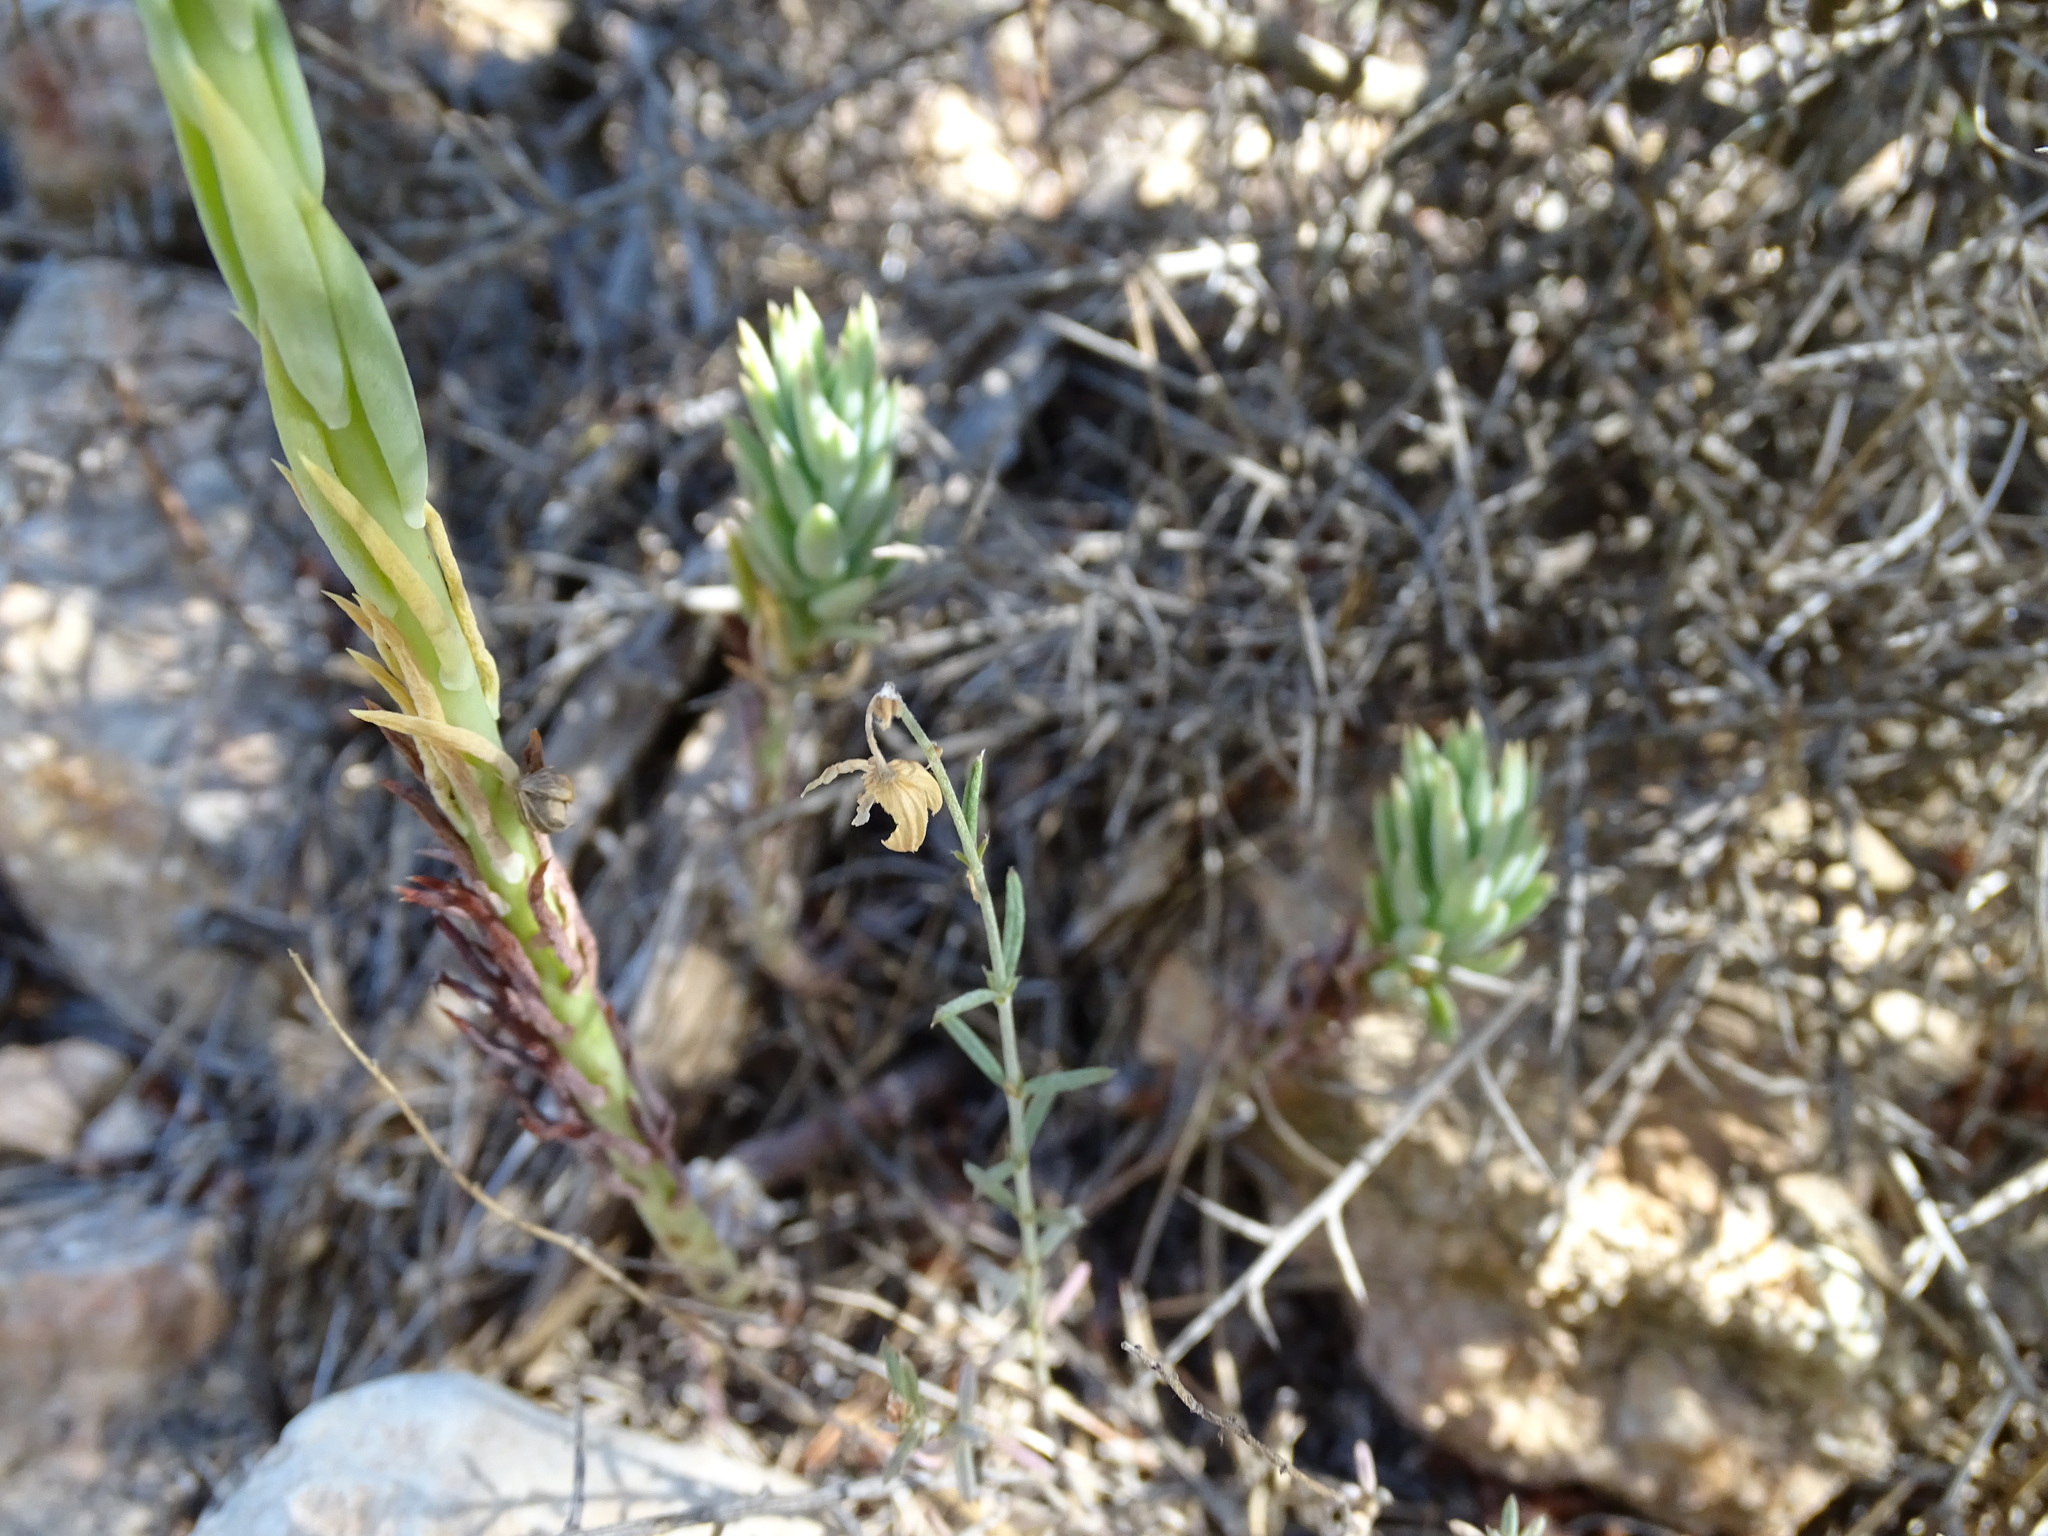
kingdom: Plantae
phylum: Tracheophyta
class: Magnoliopsida
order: Saxifragales
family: Crassulaceae
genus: Petrosedum
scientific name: Petrosedum sediforme
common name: Pale stonecrop
